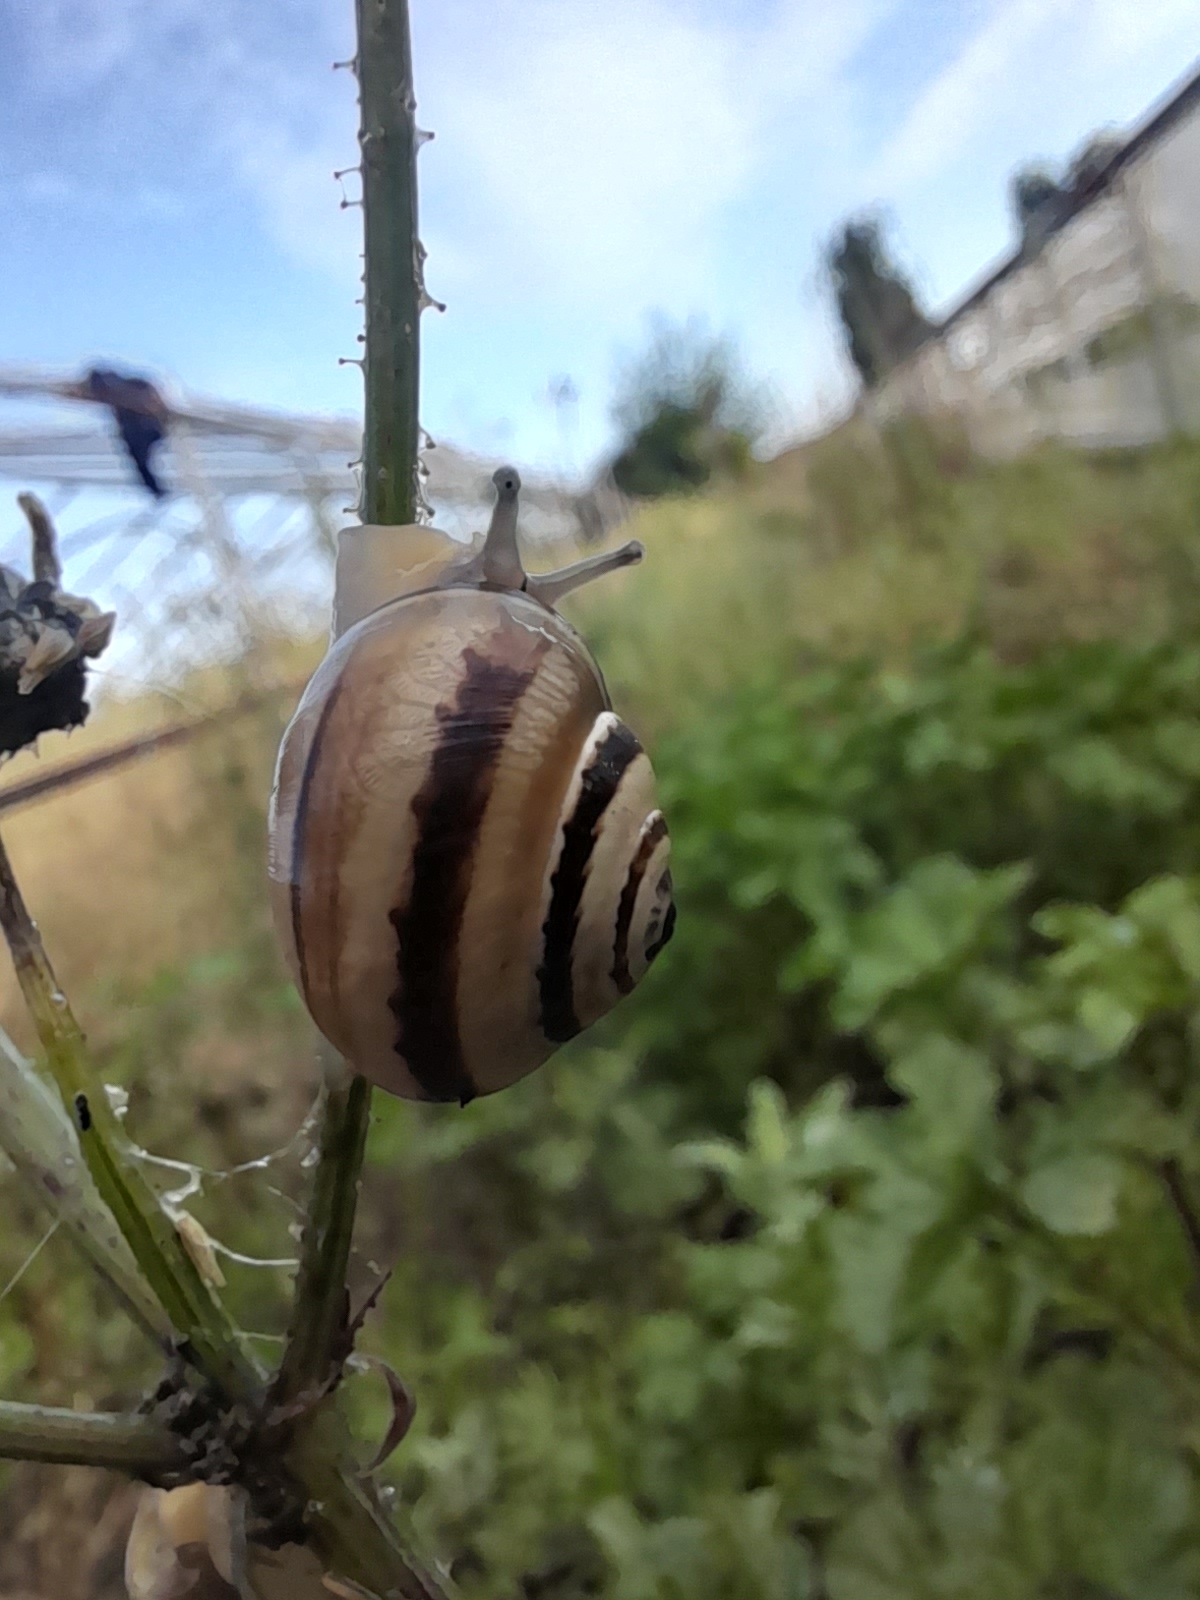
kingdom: Animalia
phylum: Mollusca
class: Gastropoda
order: Stylommatophora
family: Helicidae
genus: Theba
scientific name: Theba pisana
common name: White snail
